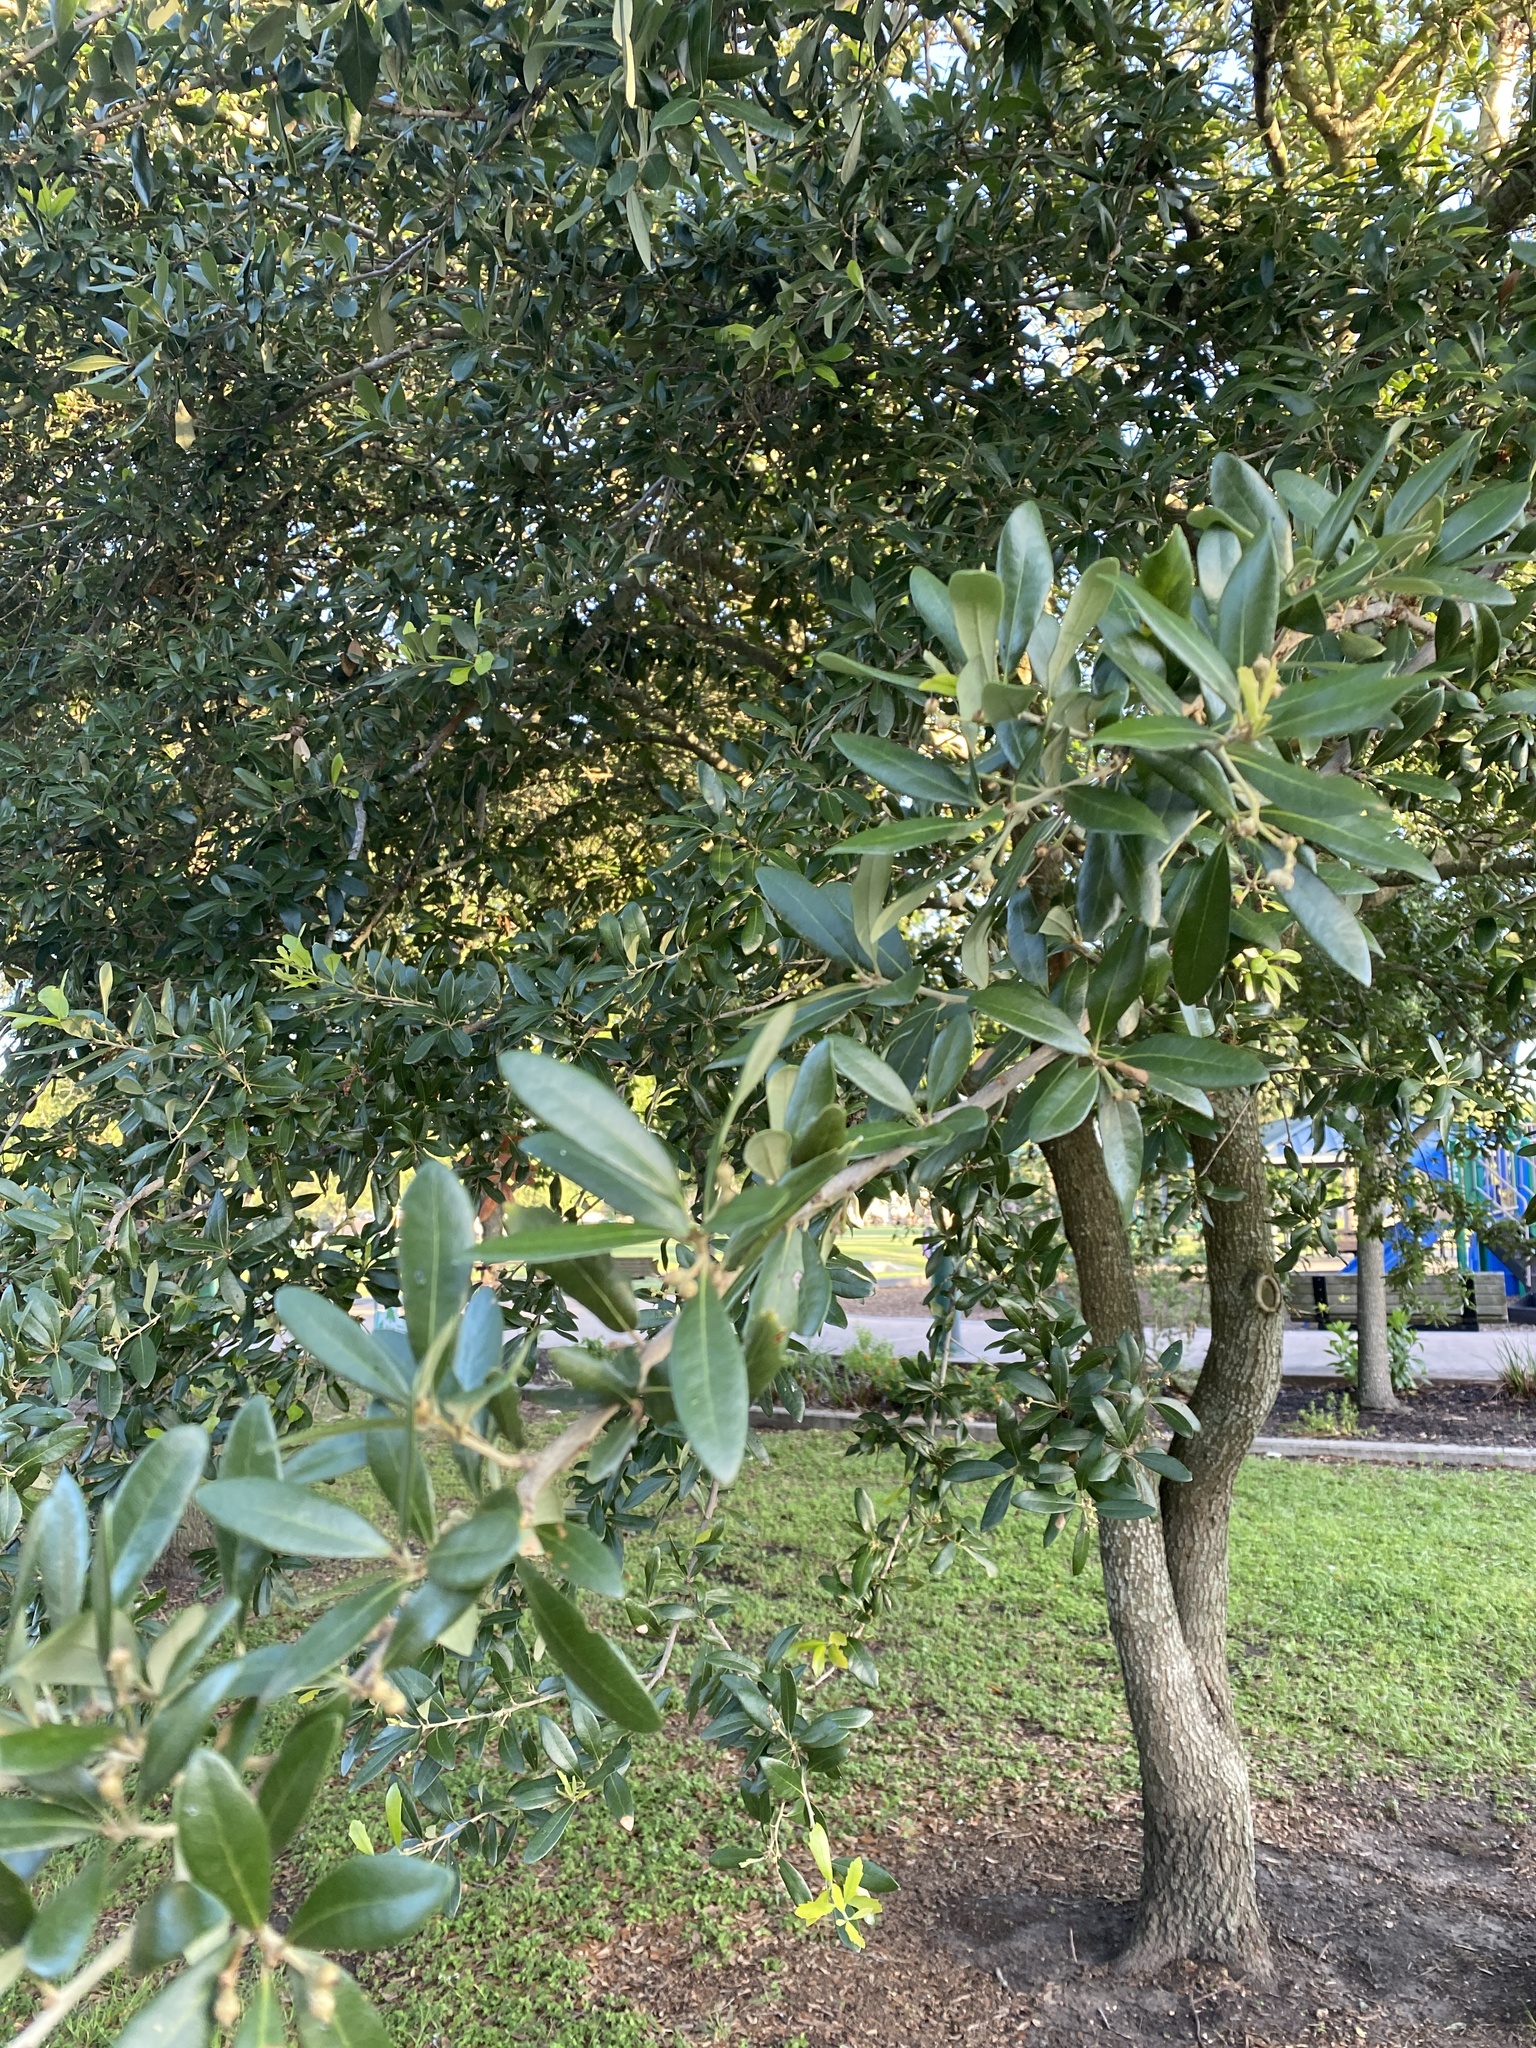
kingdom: Plantae
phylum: Tracheophyta
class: Magnoliopsida
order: Fagales
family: Fagaceae
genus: Quercus
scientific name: Quercus virginiana
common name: Southern live oak
